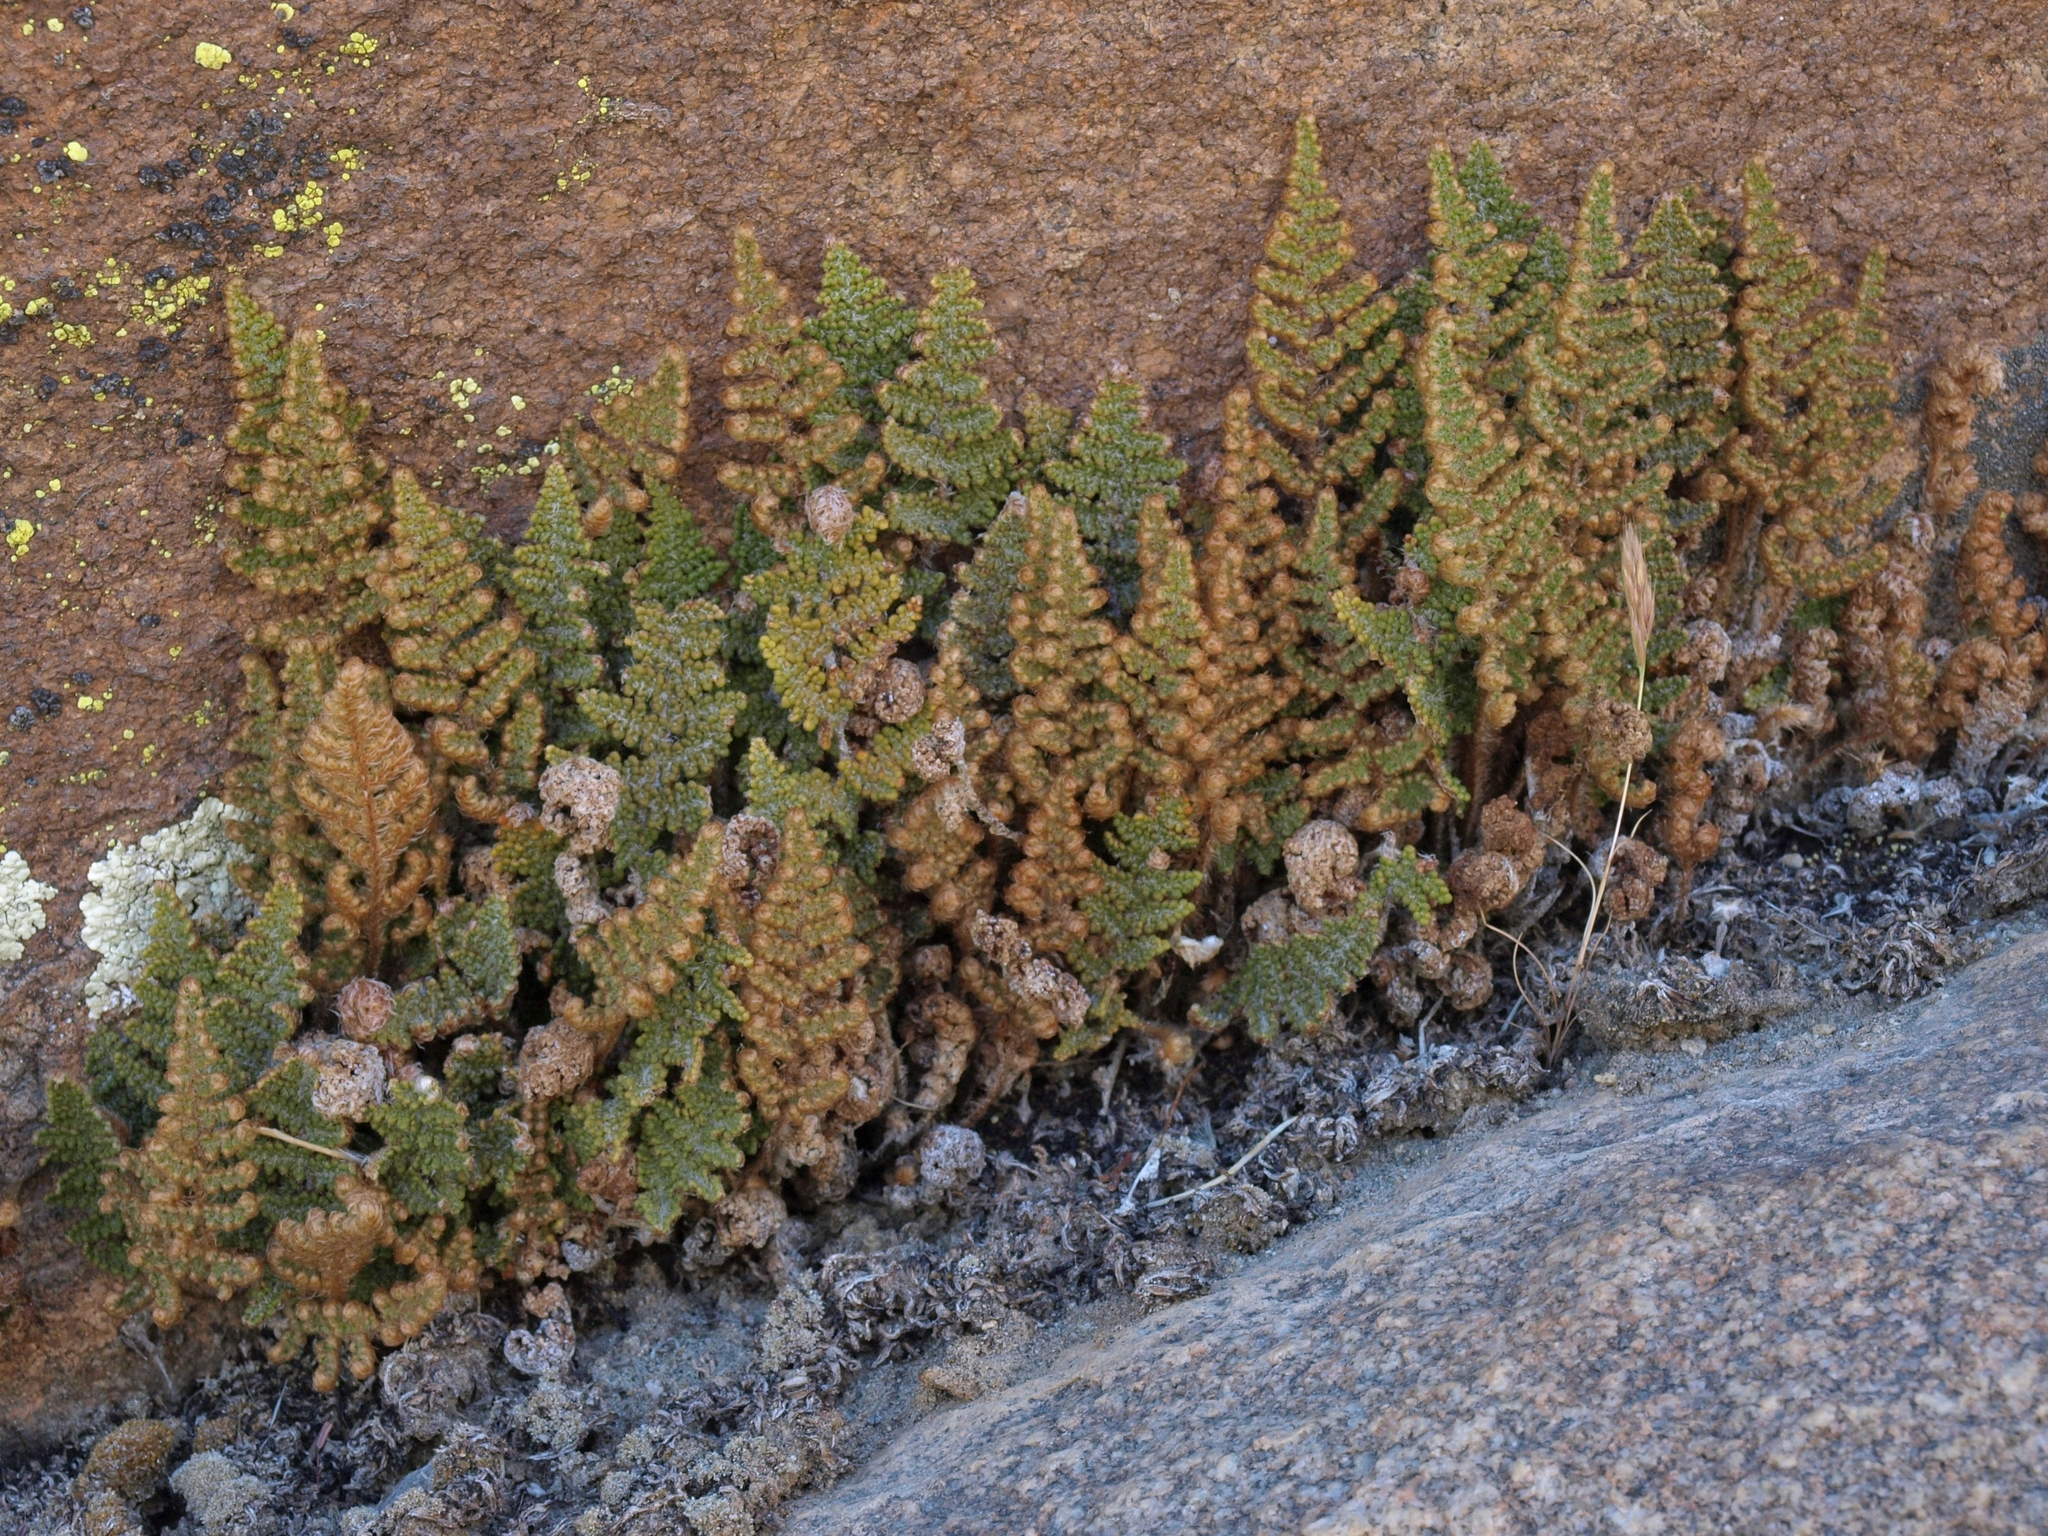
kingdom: Plantae
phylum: Tracheophyta
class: Polypodiopsida
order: Polypodiales
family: Pteridaceae
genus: Myriopteris
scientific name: Myriopteris covillei
